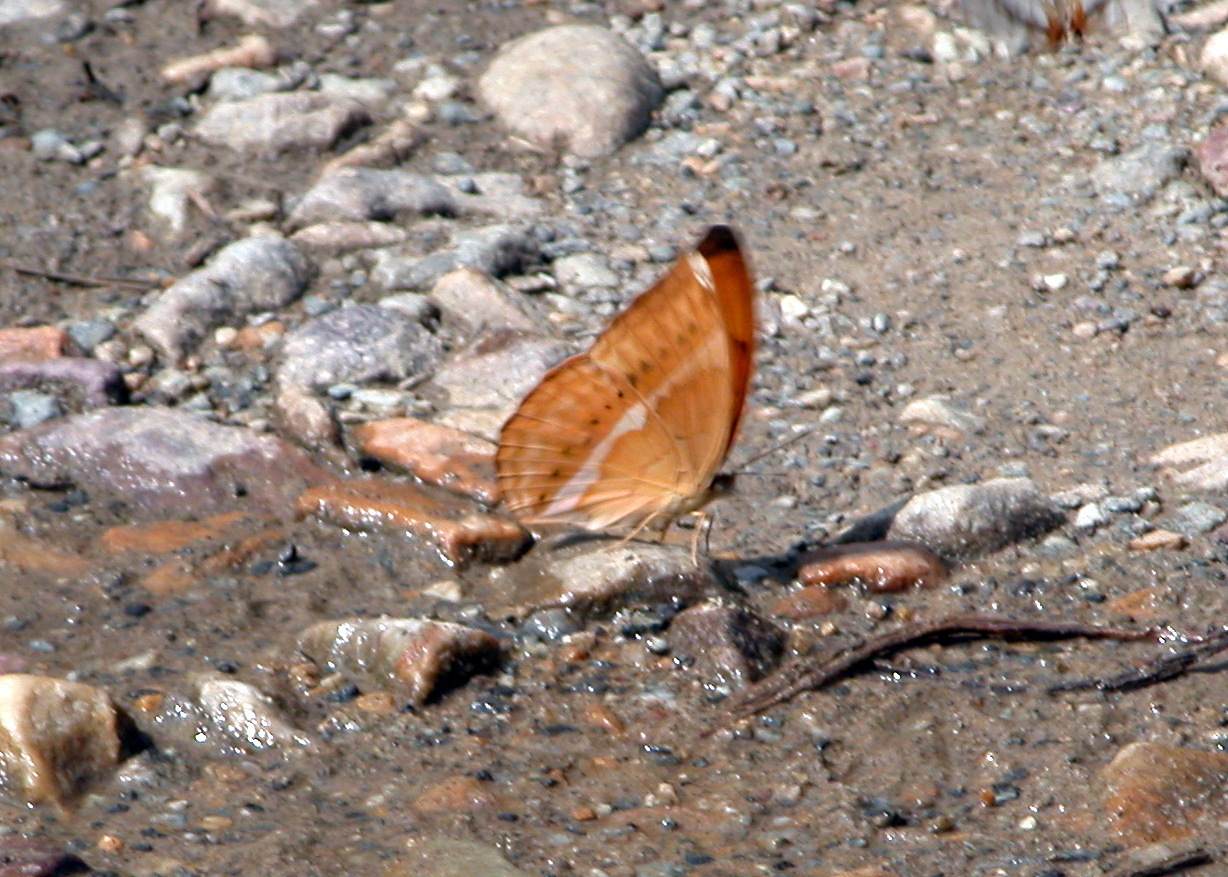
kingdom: Animalia
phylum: Arthropoda
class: Insecta
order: Lepidoptera
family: Nymphalidae
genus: Cirrochroa
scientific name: Cirrochroa aoris
